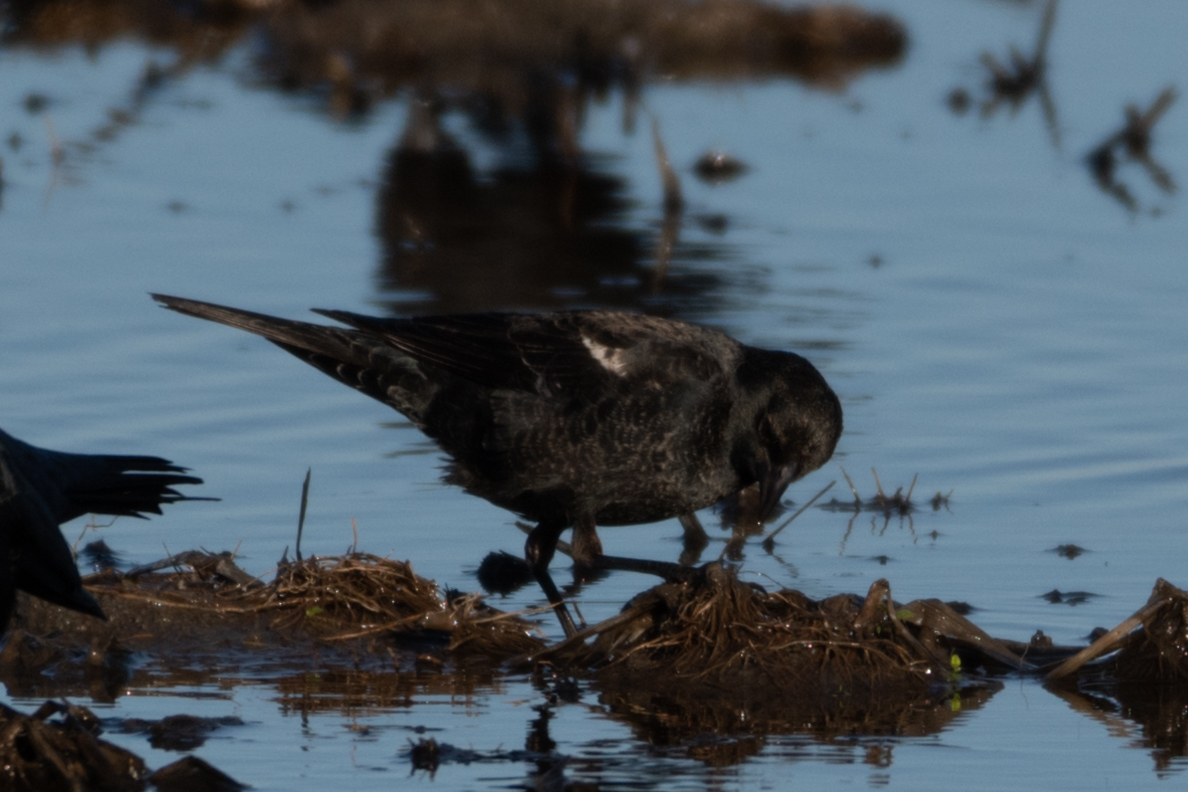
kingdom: Animalia
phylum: Chordata
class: Aves
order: Passeriformes
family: Icteridae
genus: Agelaius
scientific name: Agelaius tricolor
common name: Tricolored blackbird
